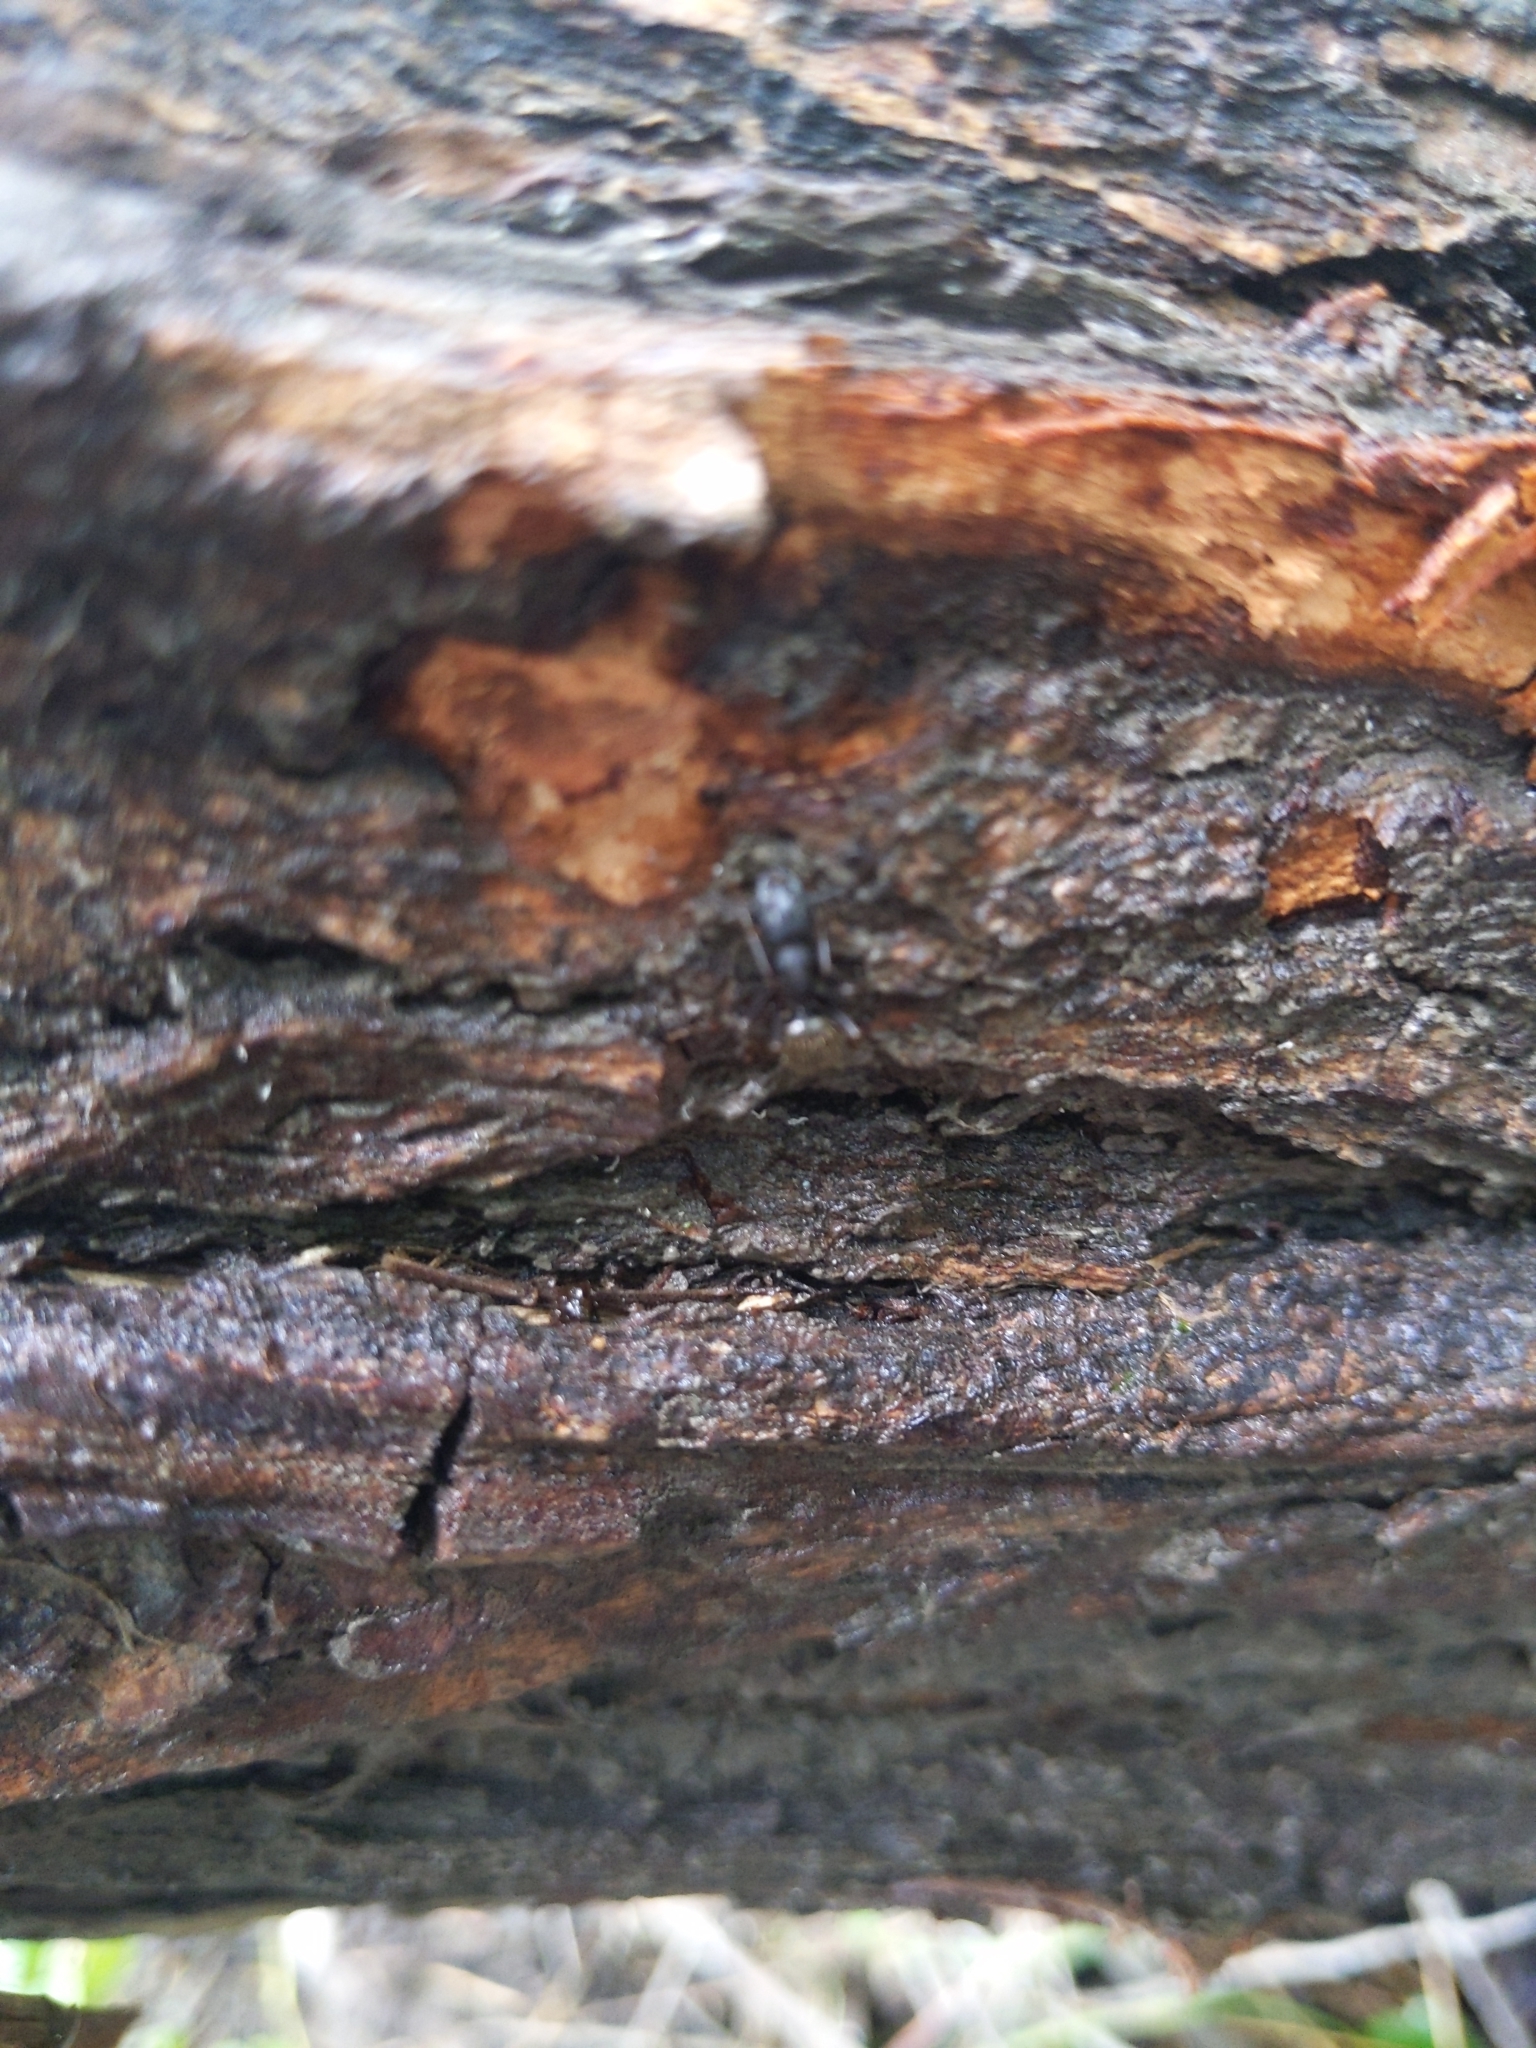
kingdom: Animalia
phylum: Arthropoda
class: Insecta
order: Hymenoptera
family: Formicidae
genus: Camponotus
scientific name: Camponotus pennsylvanicus
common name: Black carpenter ant
